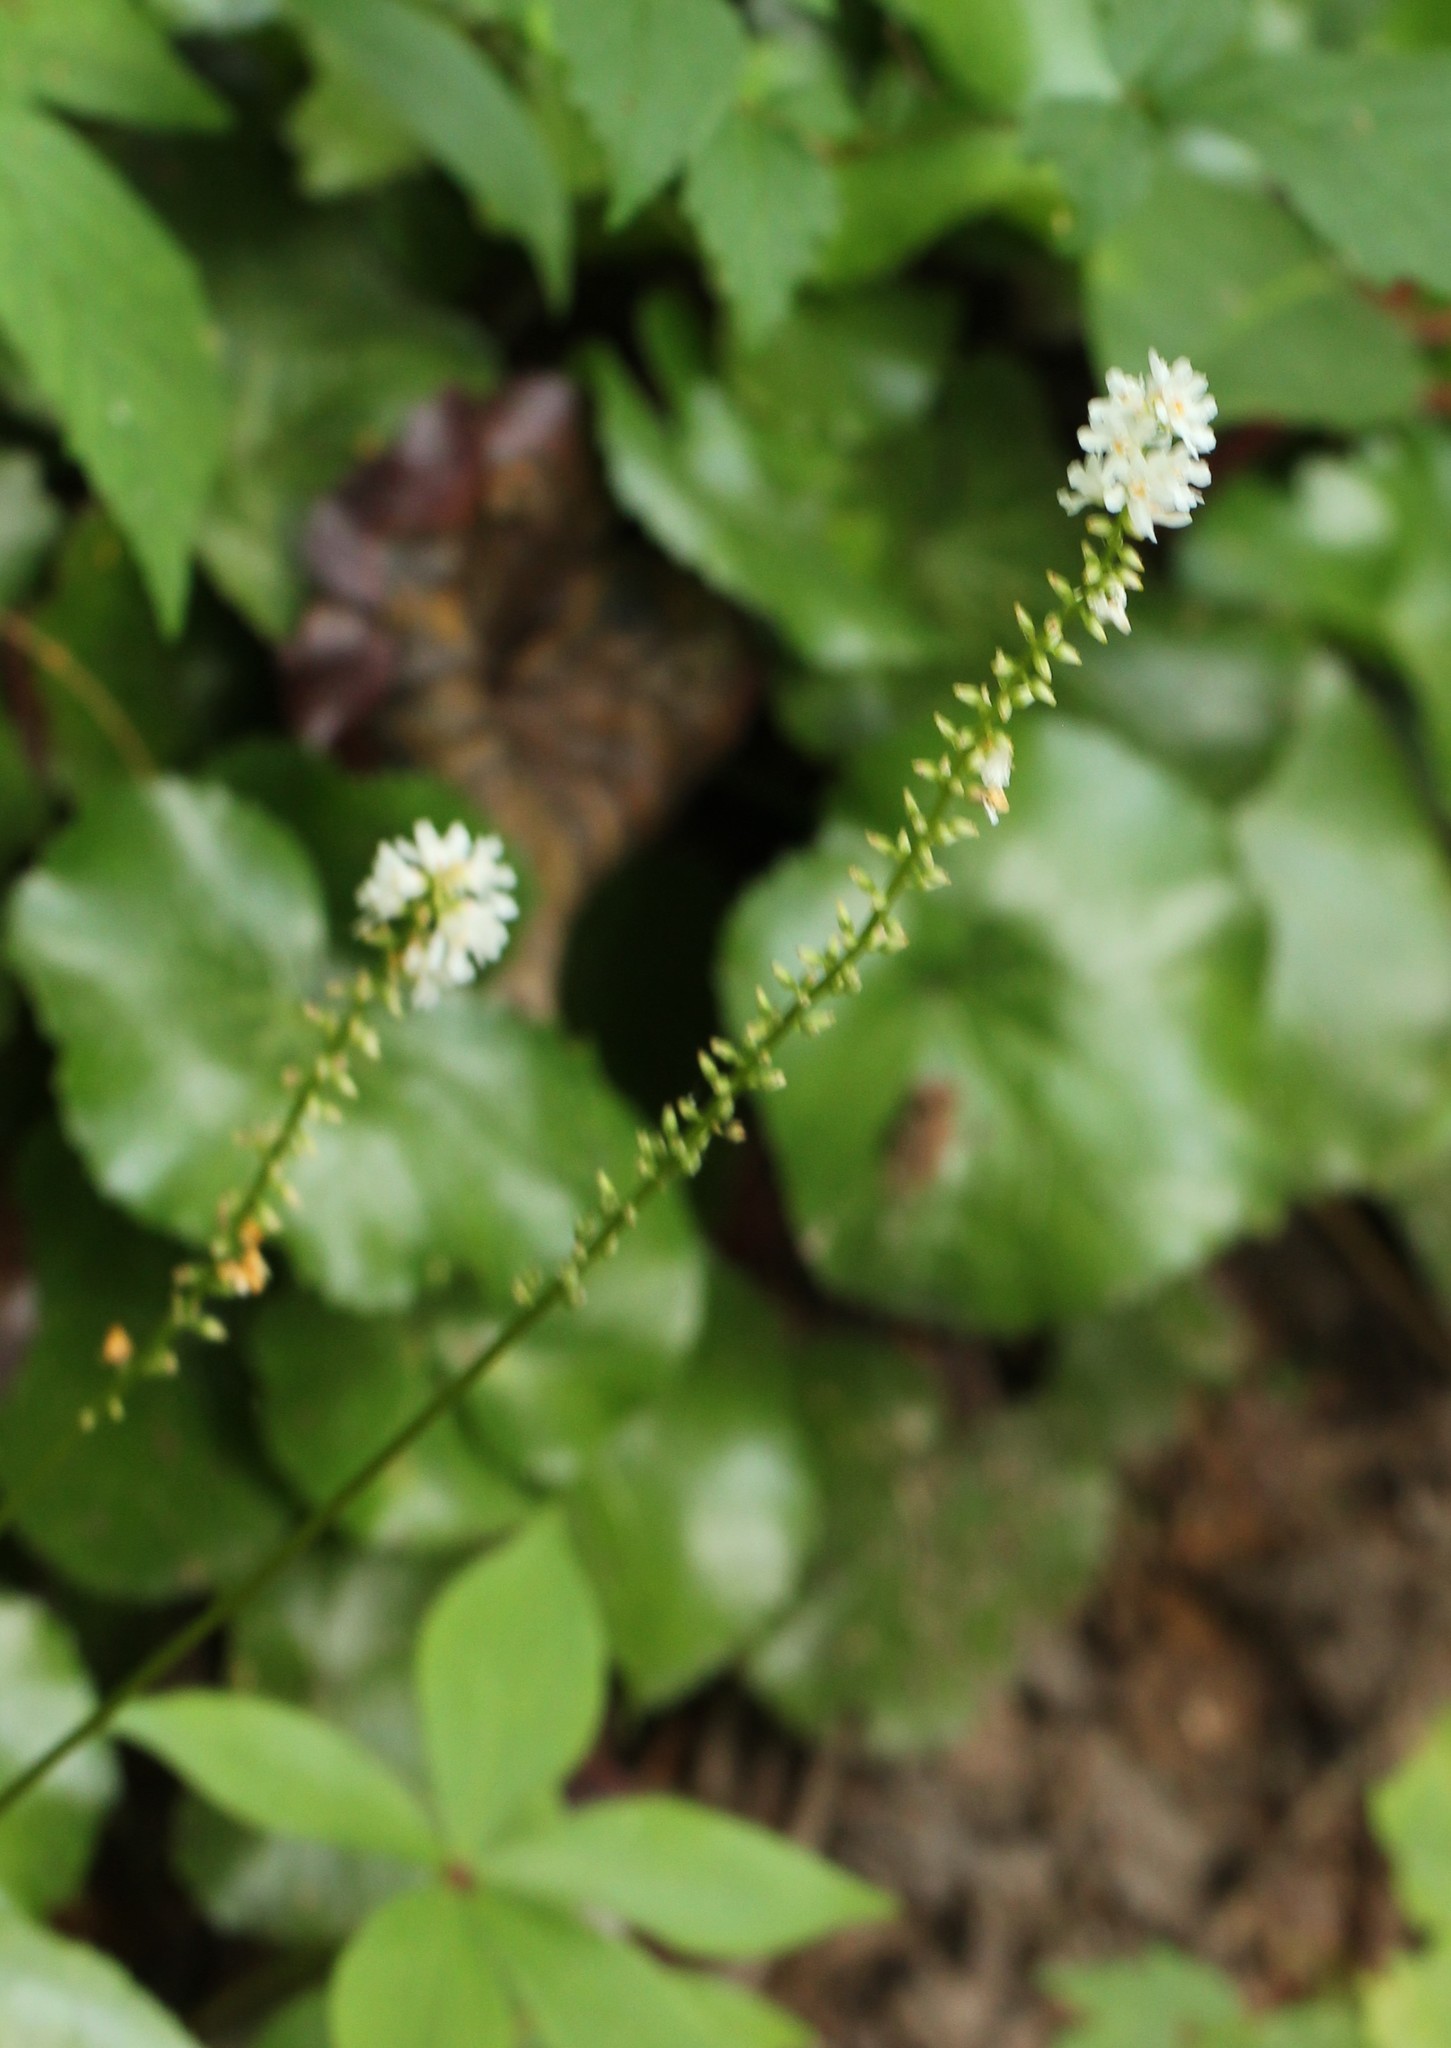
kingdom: Plantae
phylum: Tracheophyta
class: Magnoliopsida
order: Ericales
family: Diapensiaceae
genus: Galax
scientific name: Galax urceolata
